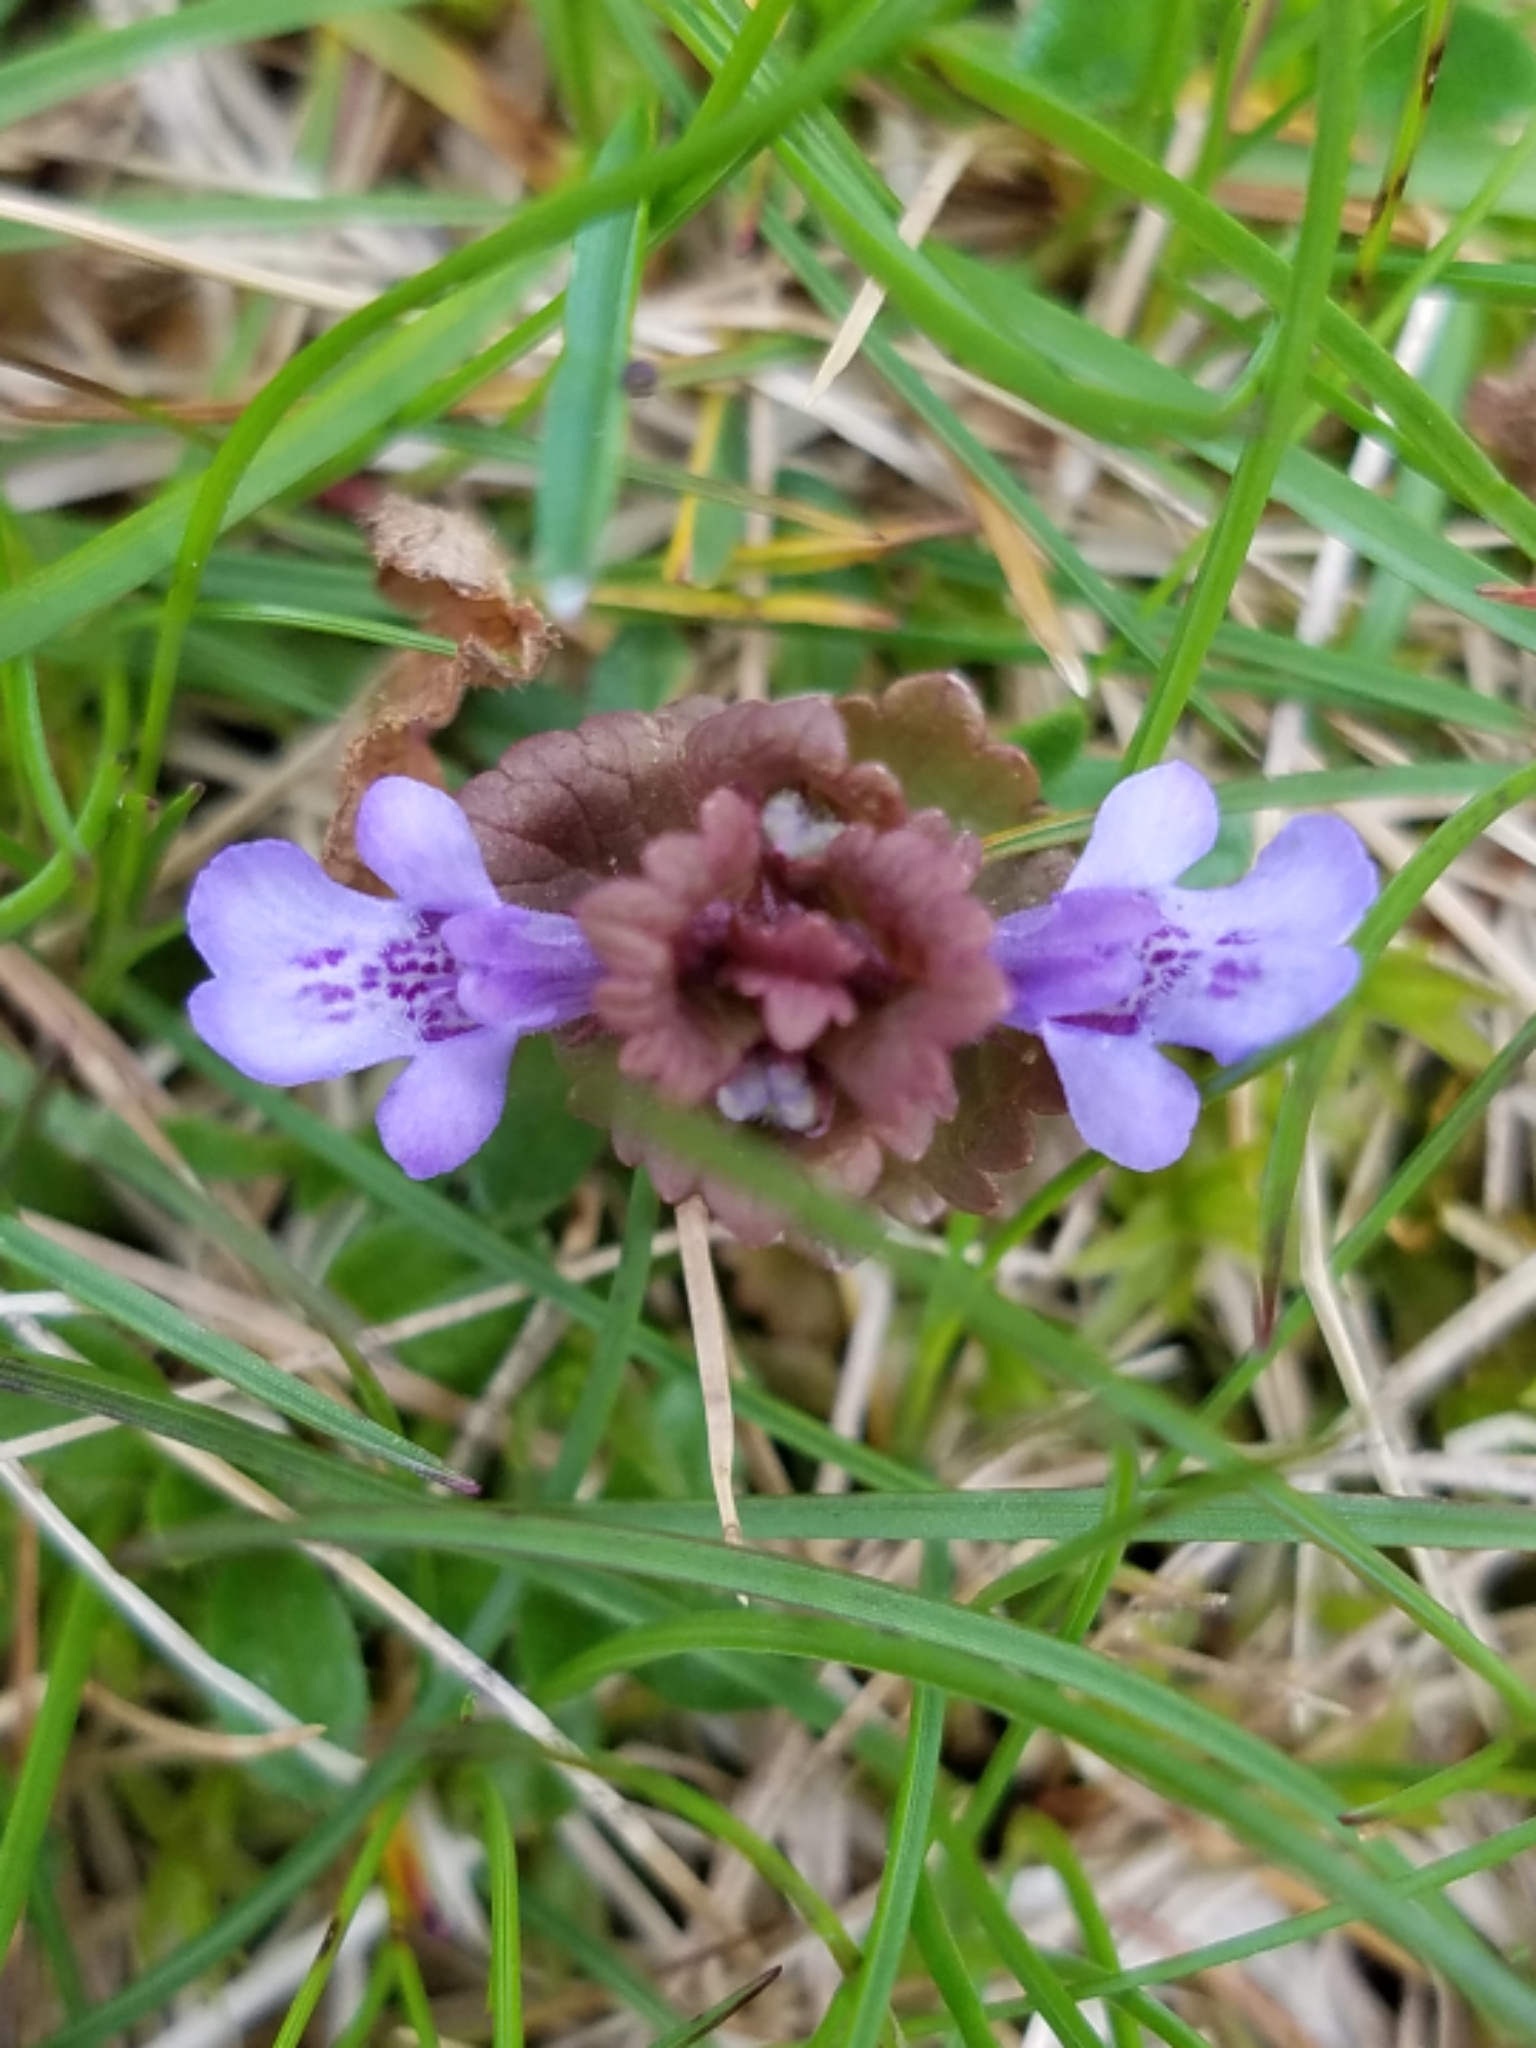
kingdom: Plantae
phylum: Tracheophyta
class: Magnoliopsida
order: Lamiales
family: Lamiaceae
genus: Glechoma
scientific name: Glechoma hederacea
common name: Ground ivy
